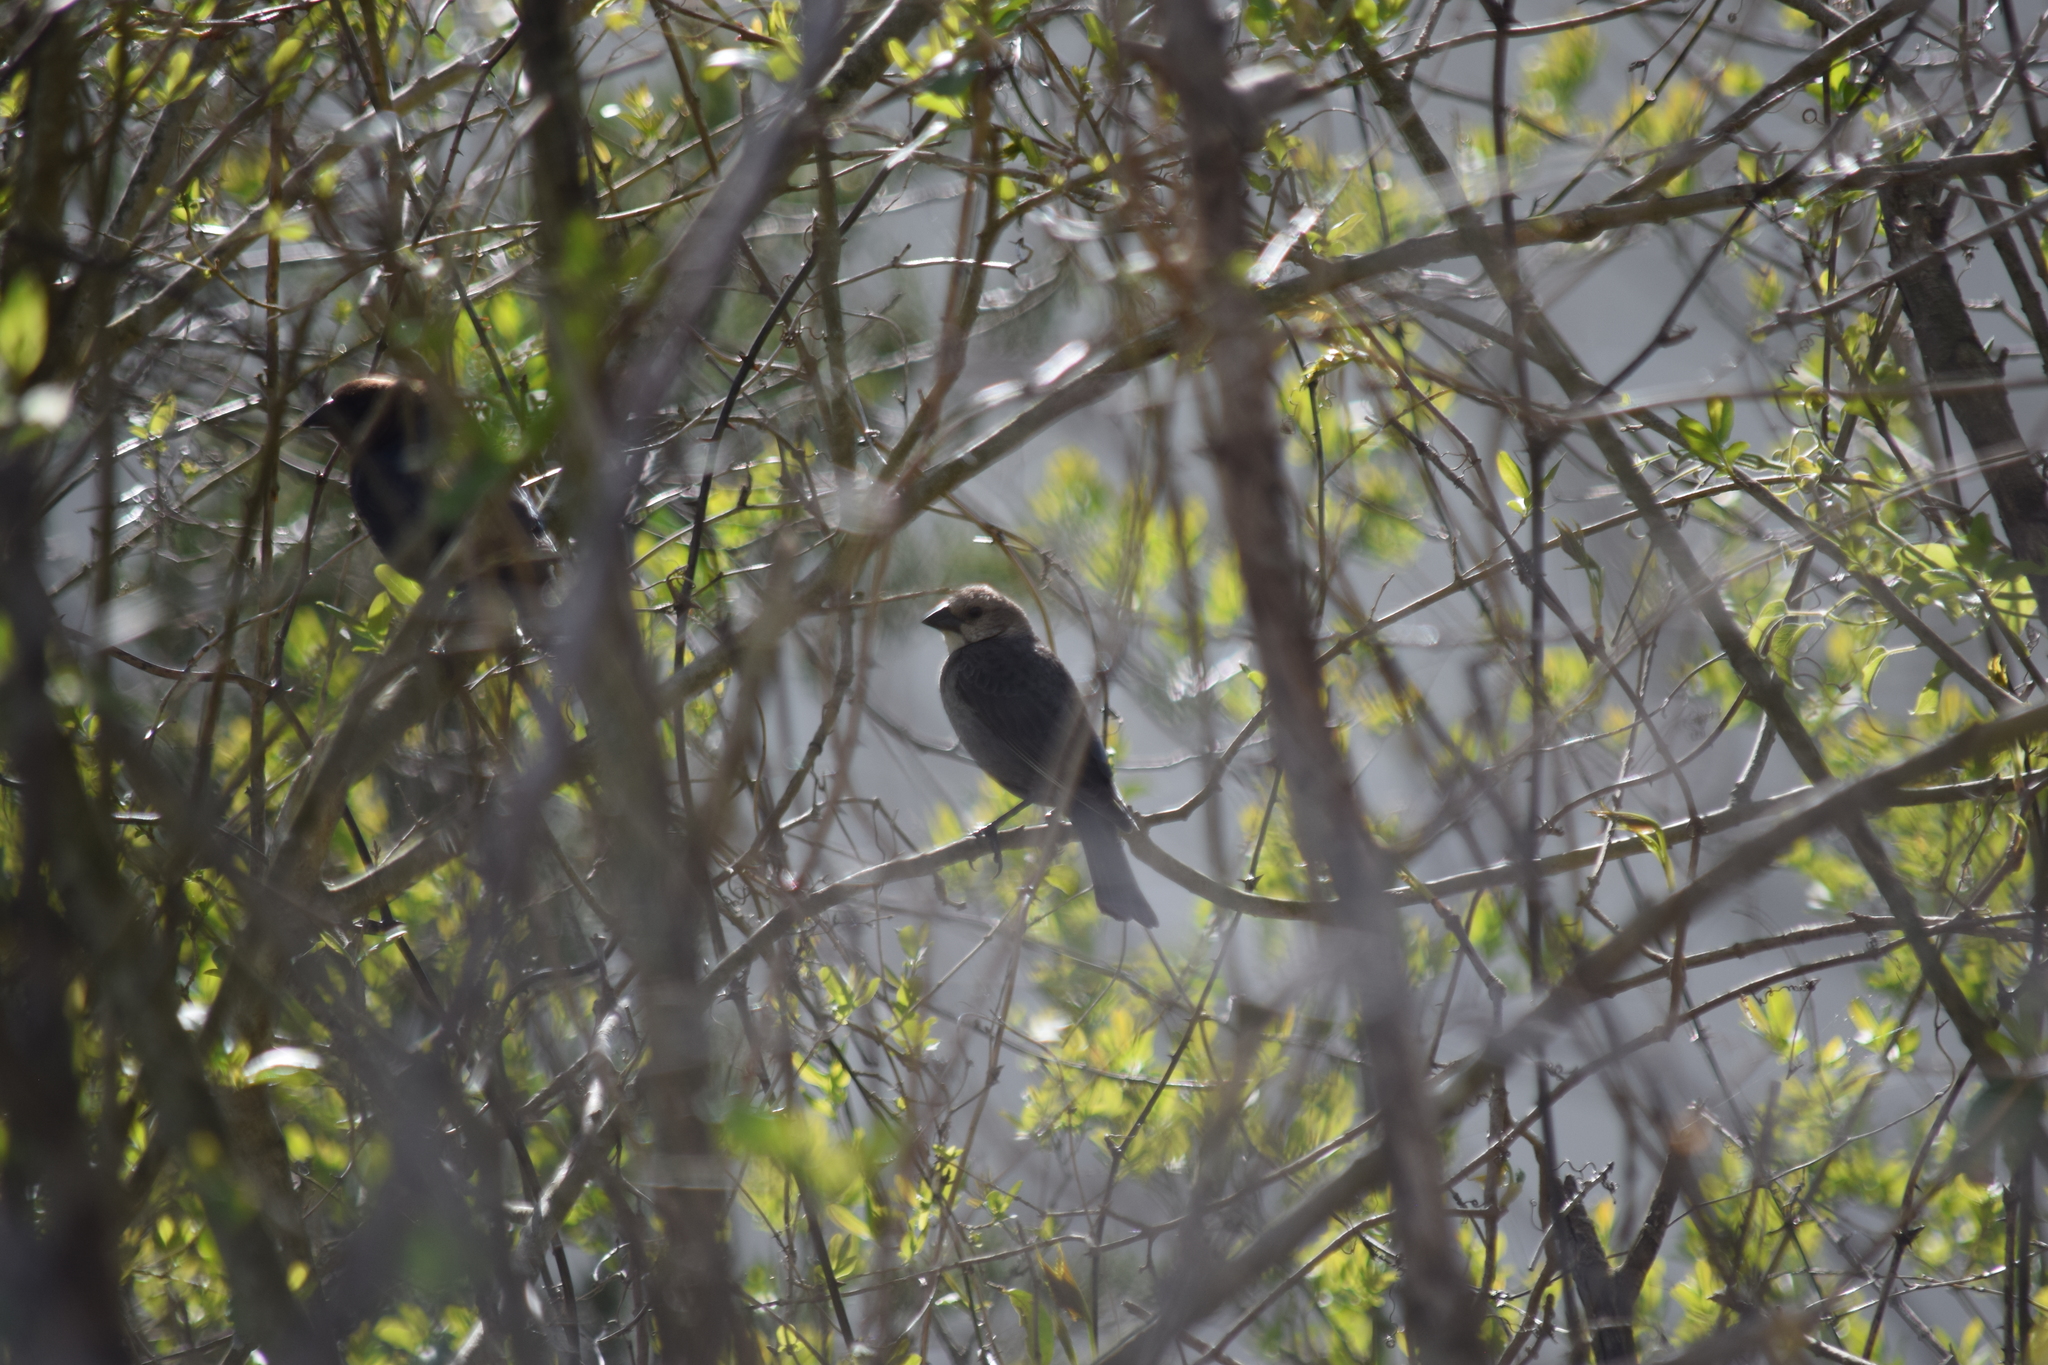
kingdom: Animalia
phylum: Chordata
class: Aves
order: Passeriformes
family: Icteridae
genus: Molothrus
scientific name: Molothrus ater
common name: Brown-headed cowbird
